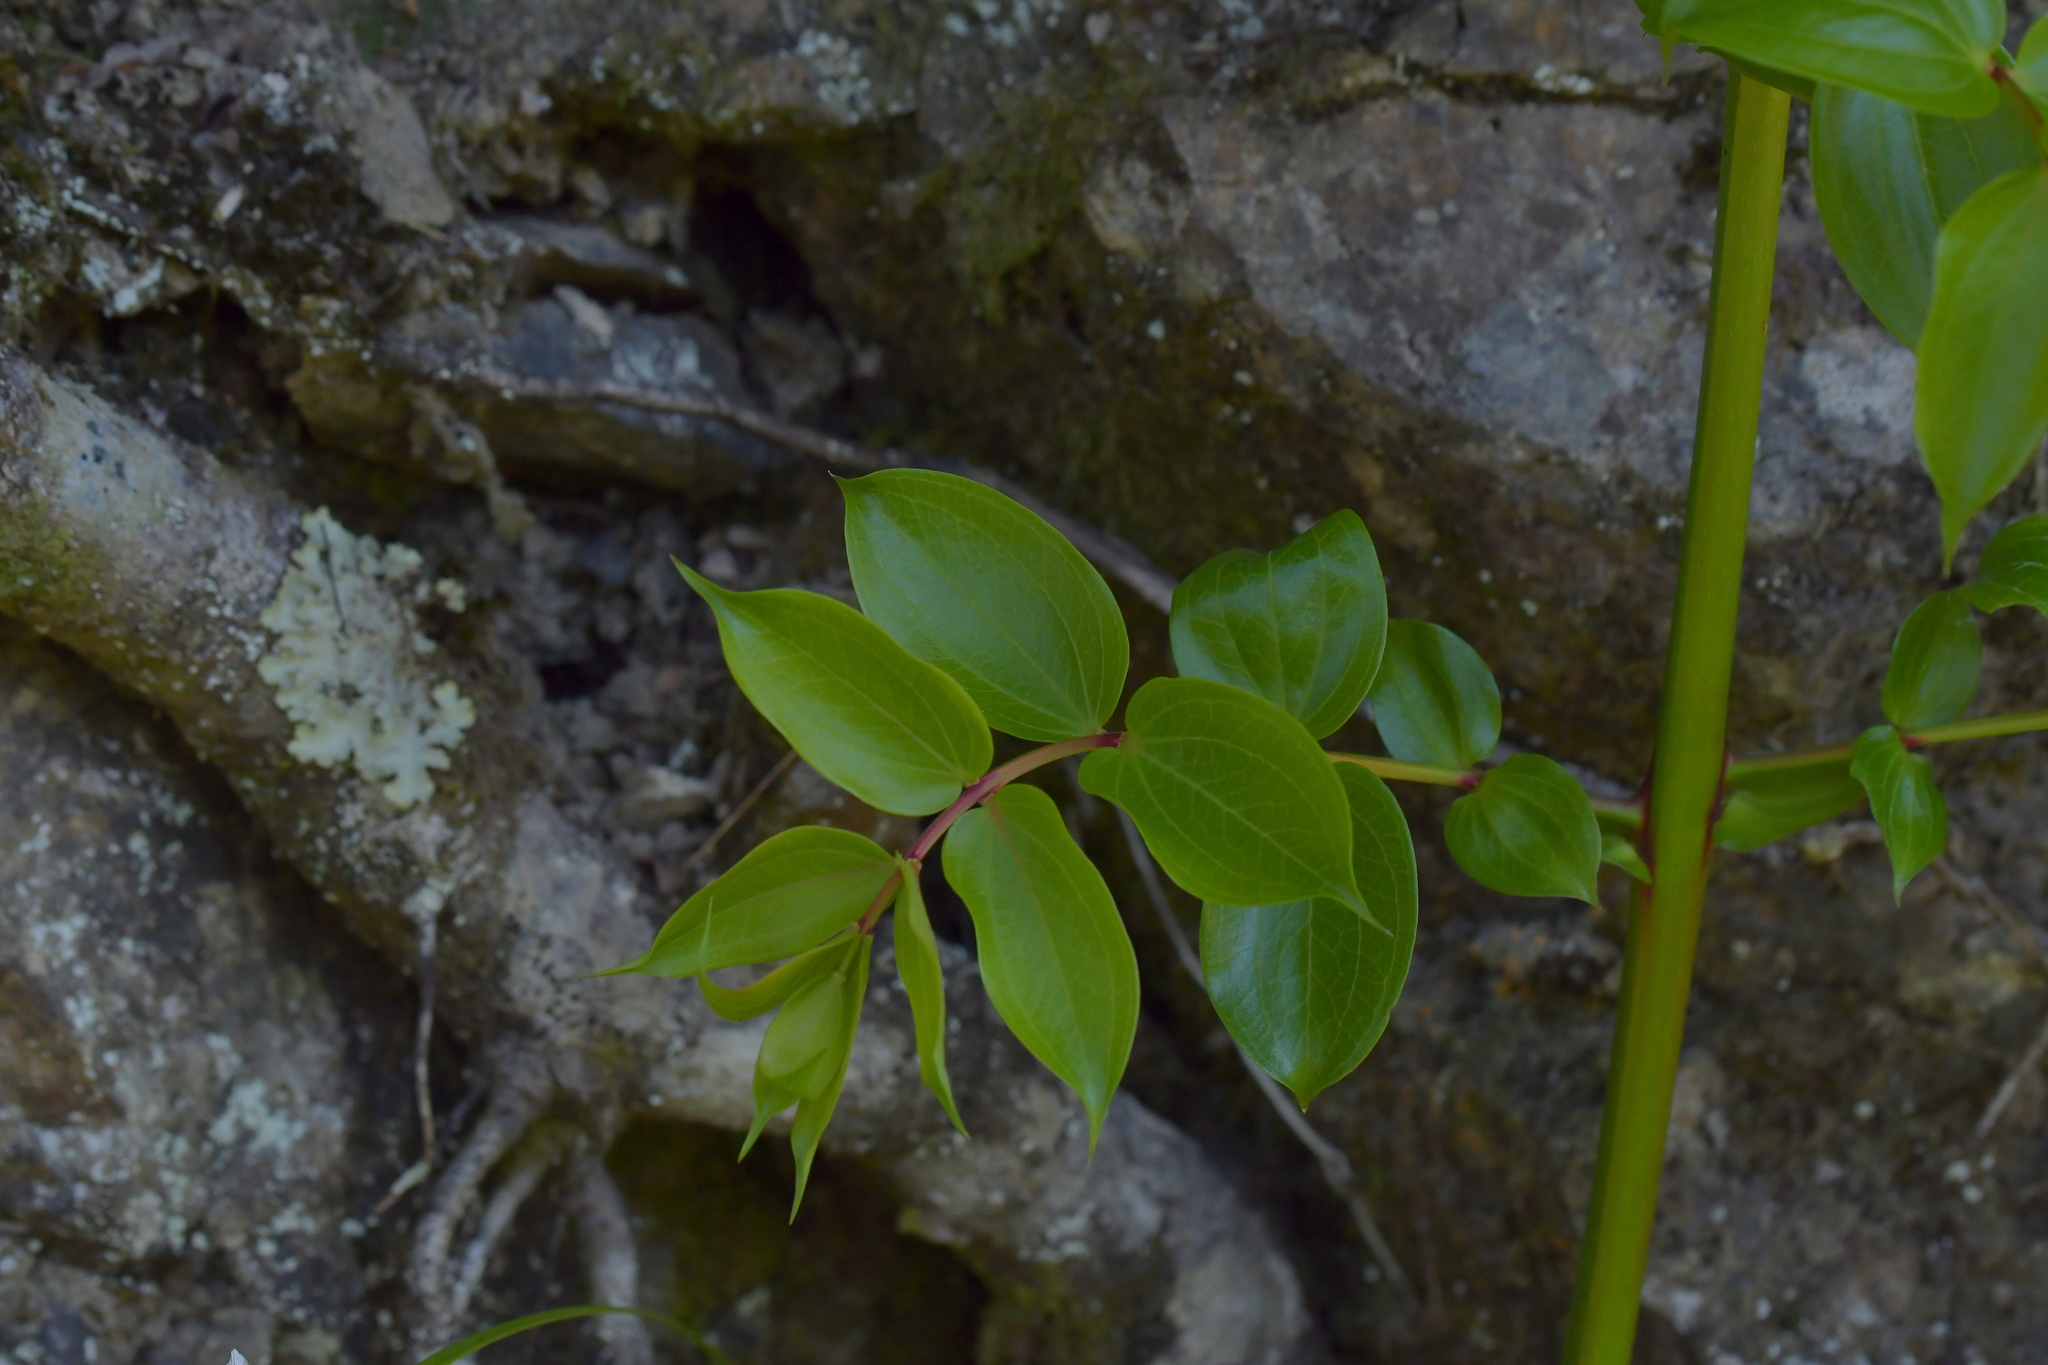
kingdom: Plantae
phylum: Tracheophyta
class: Magnoliopsida
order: Cucurbitales
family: Coriariaceae
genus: Coriaria
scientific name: Coriaria arborea
